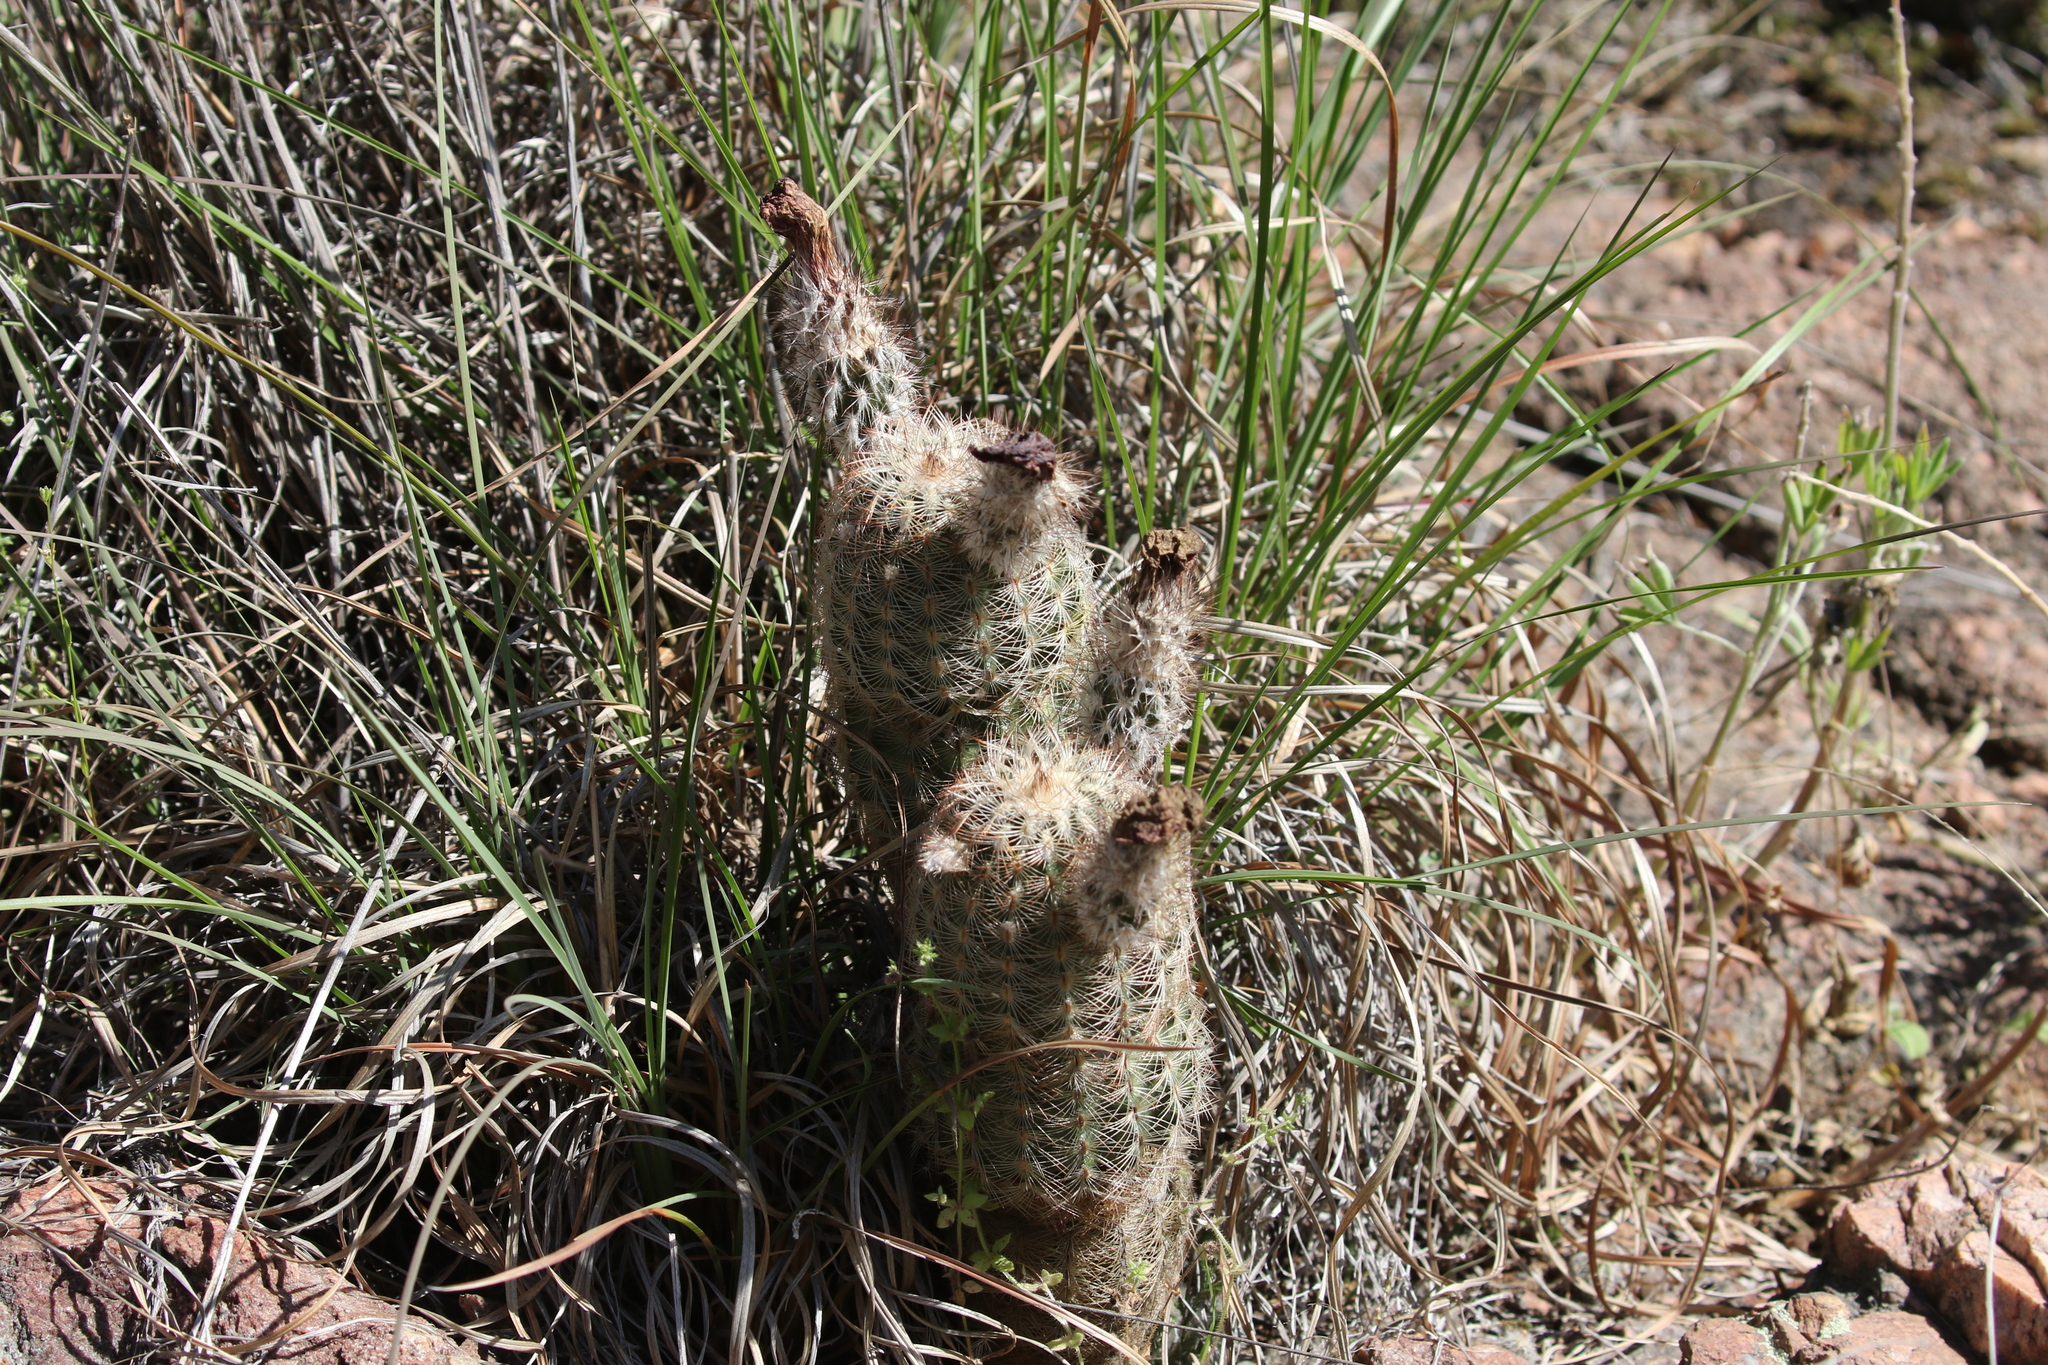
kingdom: Plantae
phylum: Tracheophyta
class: Magnoliopsida
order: Caryophyllales
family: Cactaceae
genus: Echinocereus
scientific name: Echinocereus reichenbachii
